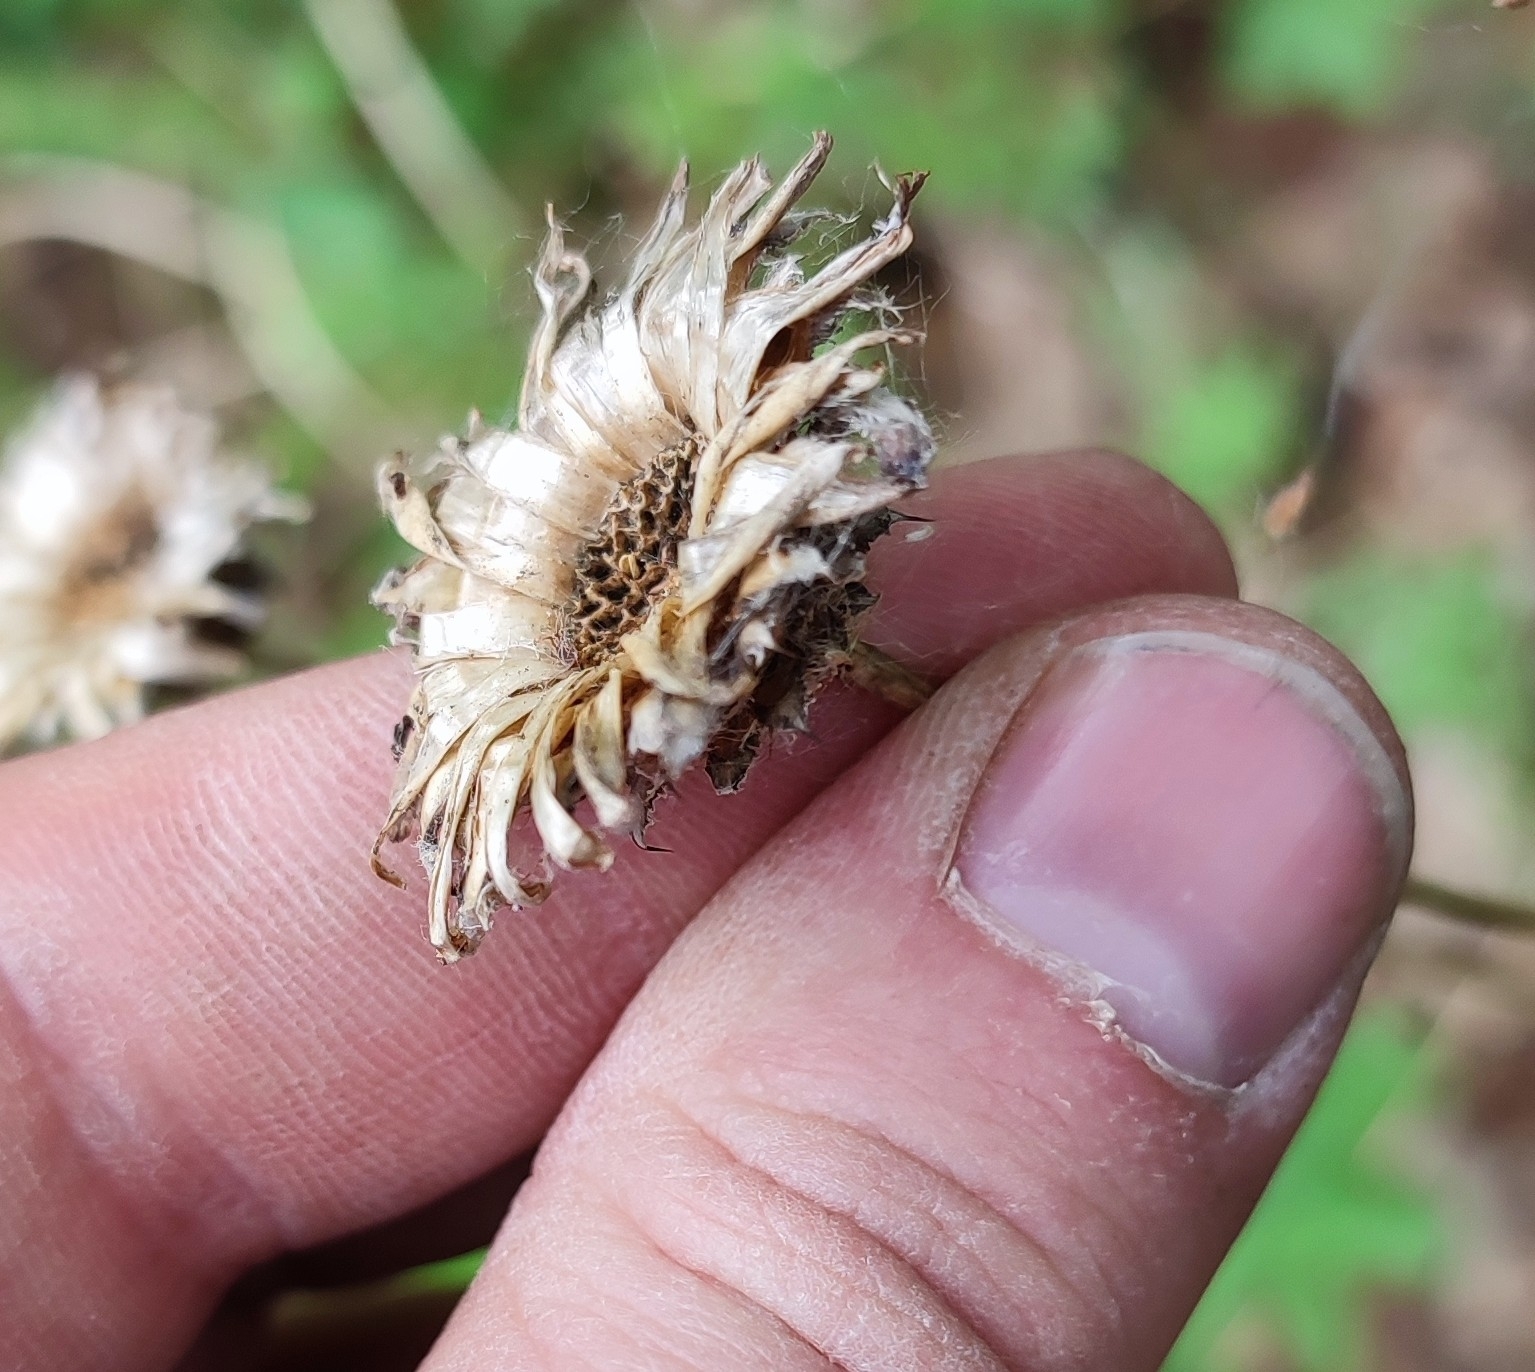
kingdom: Plantae
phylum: Tracheophyta
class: Magnoliopsida
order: Asterales
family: Asteraceae
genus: Centaurea
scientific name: Centaurea scabiosa
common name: Greater knapweed
